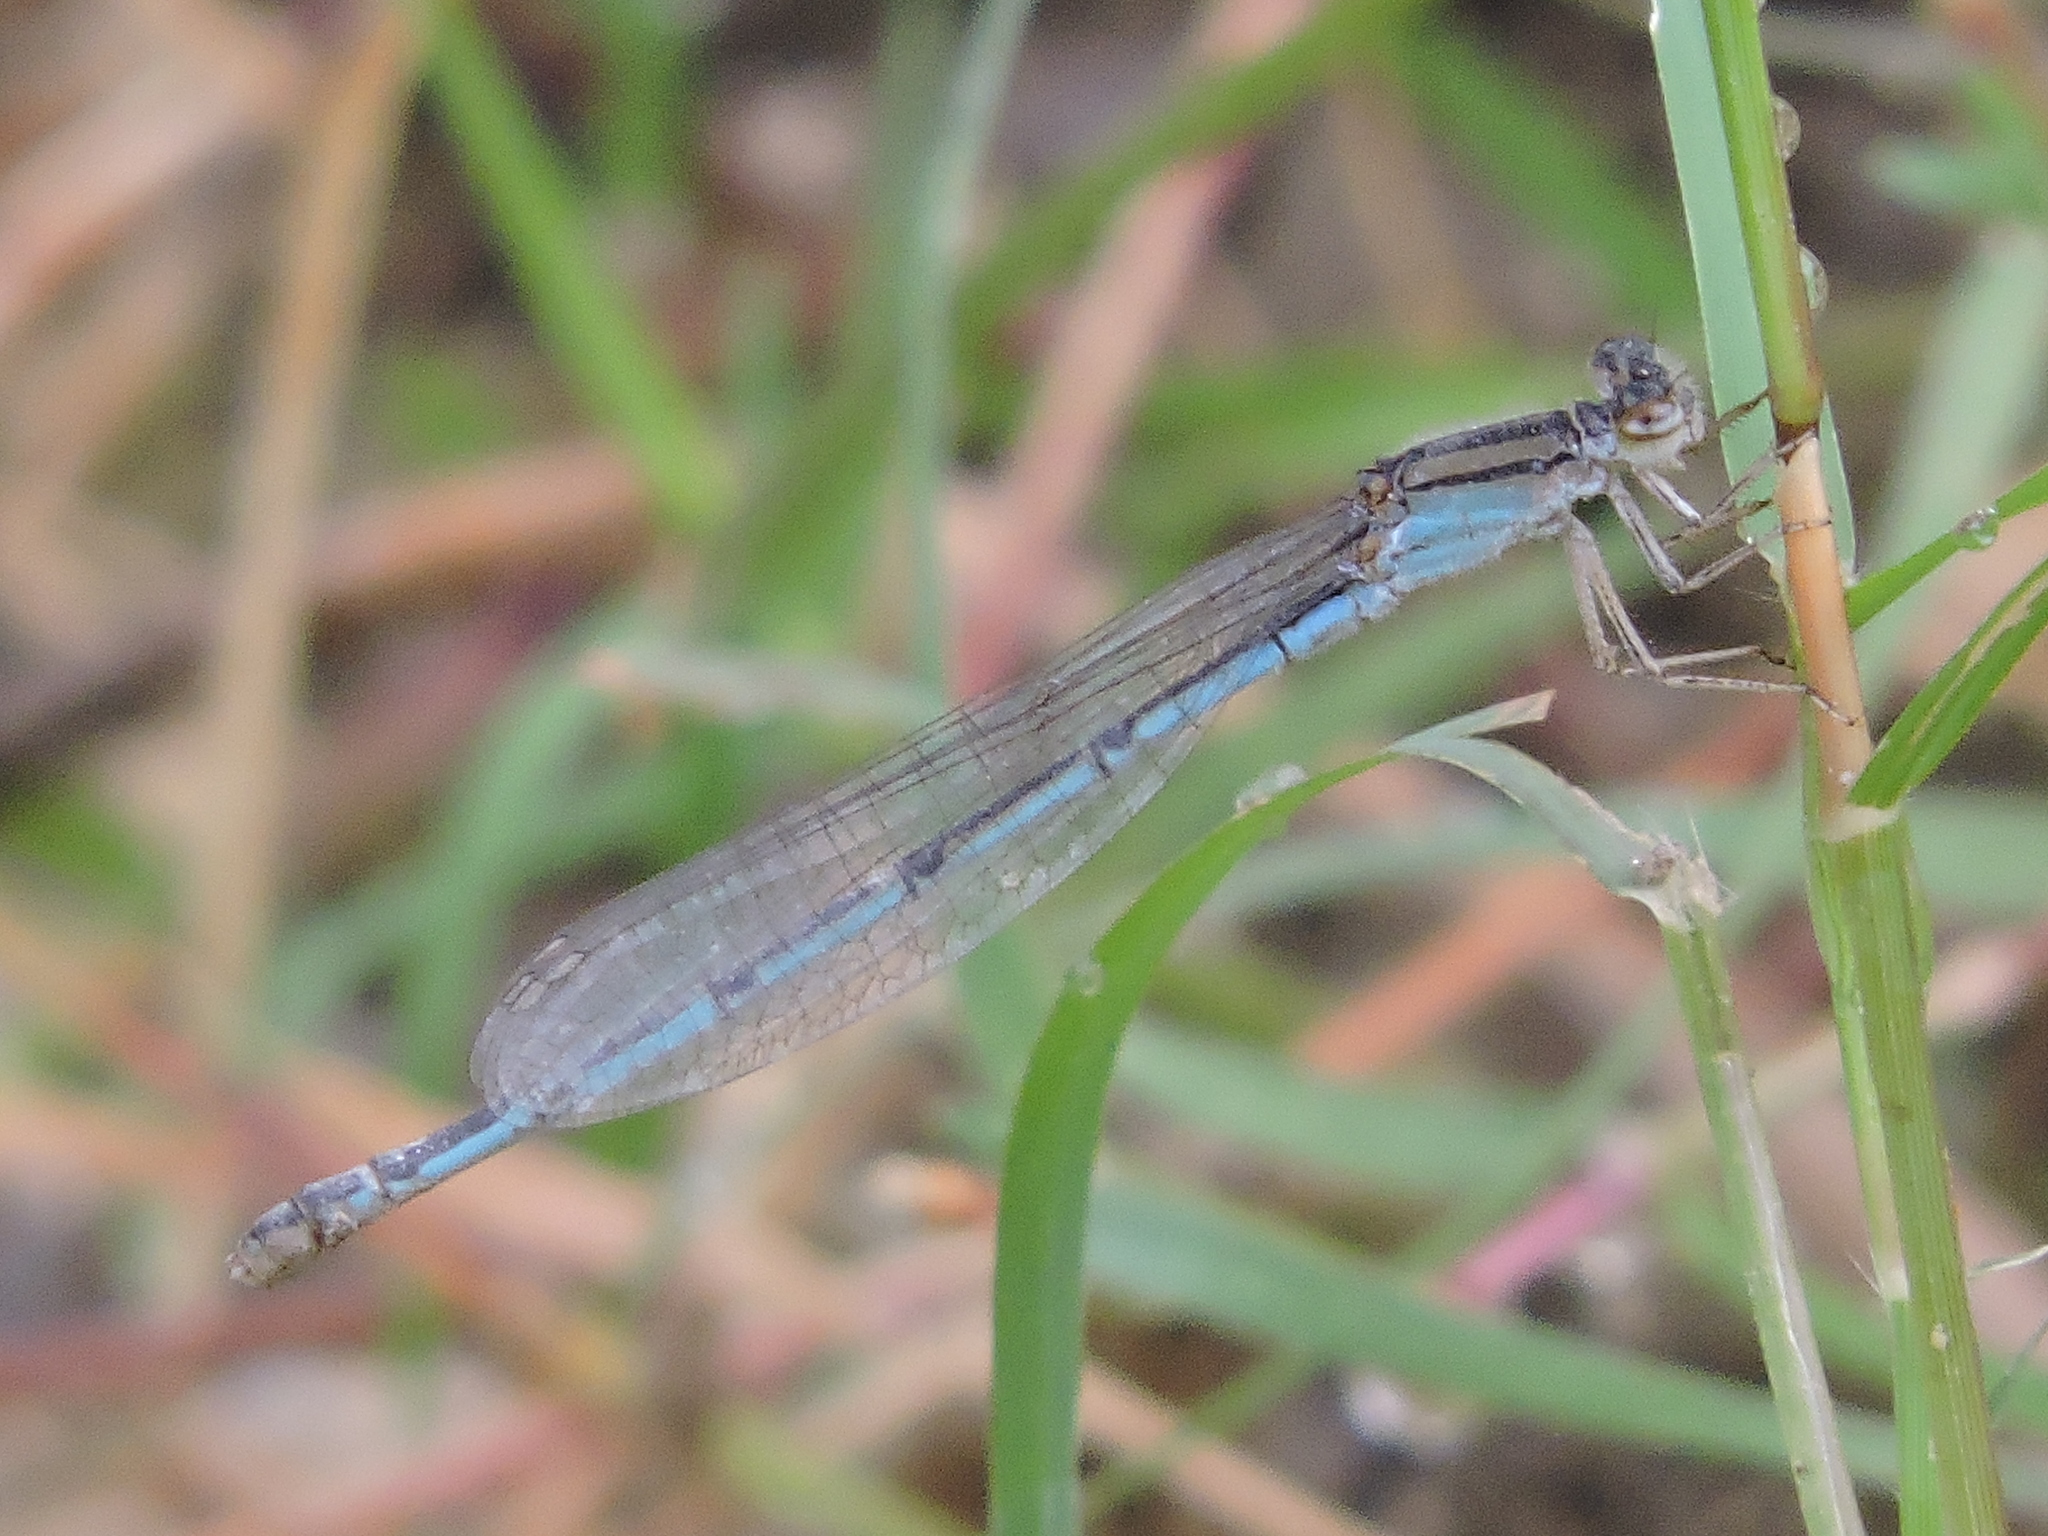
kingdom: Animalia
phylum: Arthropoda
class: Insecta
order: Odonata
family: Coenagrionidae
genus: Enallagma
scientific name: Enallagma civile
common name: Damselfly
